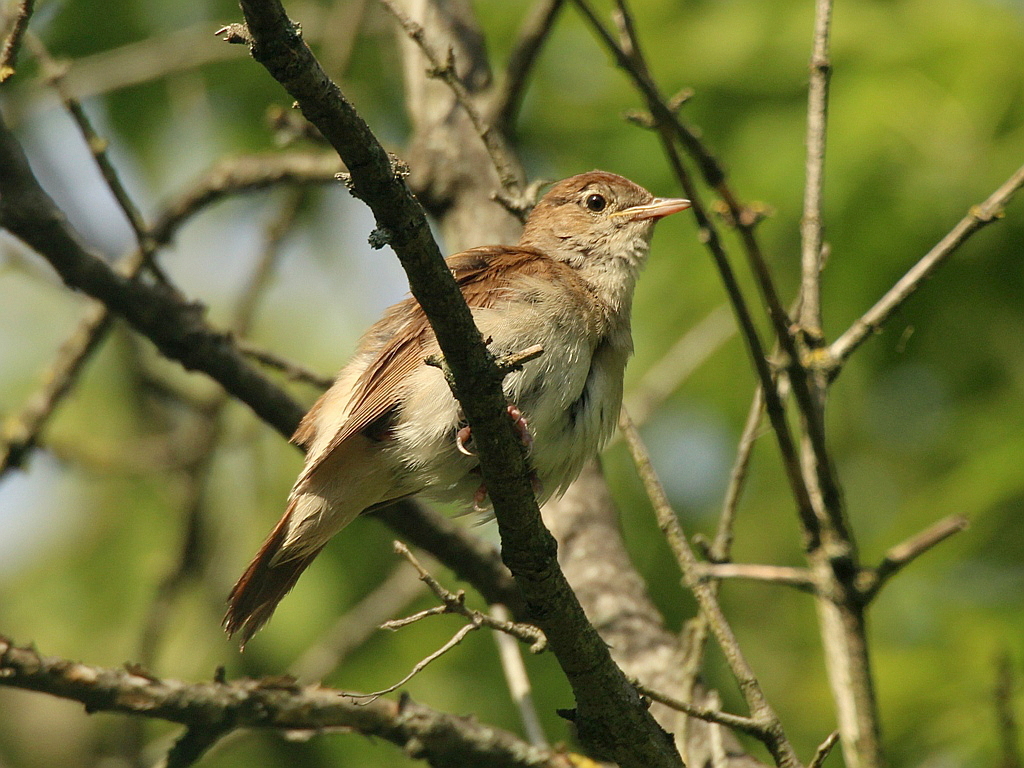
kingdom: Animalia
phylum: Chordata
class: Aves
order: Passeriformes
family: Muscicapidae
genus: Luscinia
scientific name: Luscinia megarhynchos
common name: Common nightingale
